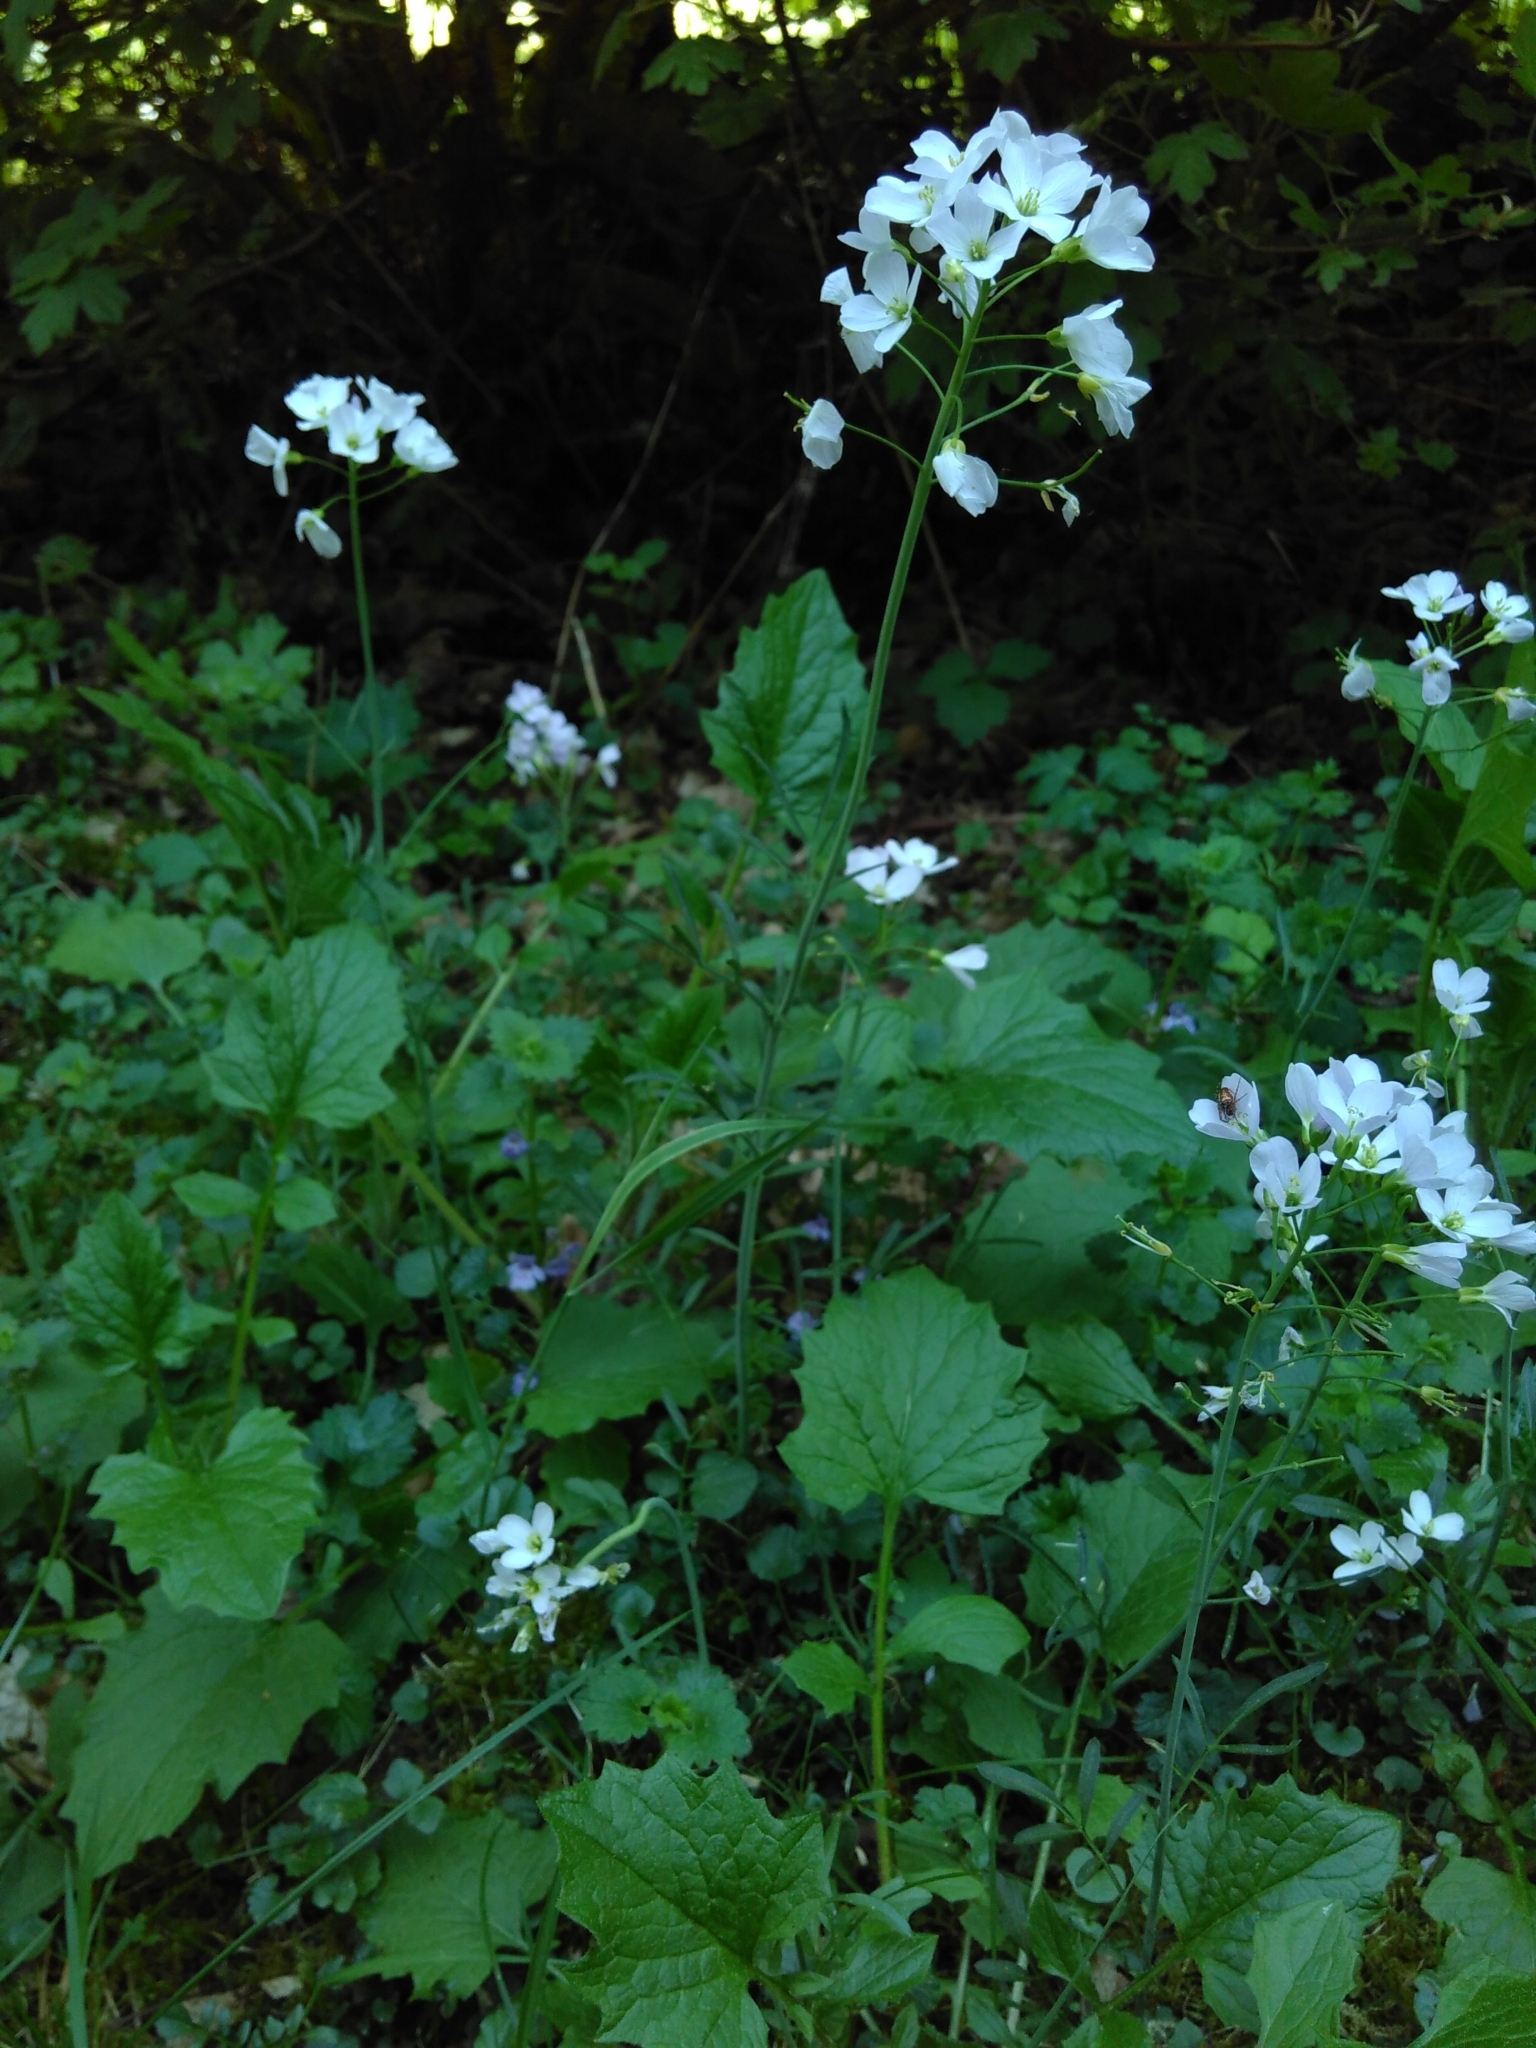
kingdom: Plantae
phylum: Tracheophyta
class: Magnoliopsida
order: Brassicales
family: Brassicaceae
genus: Cardamine
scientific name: Cardamine pratensis
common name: Cuckoo flower
